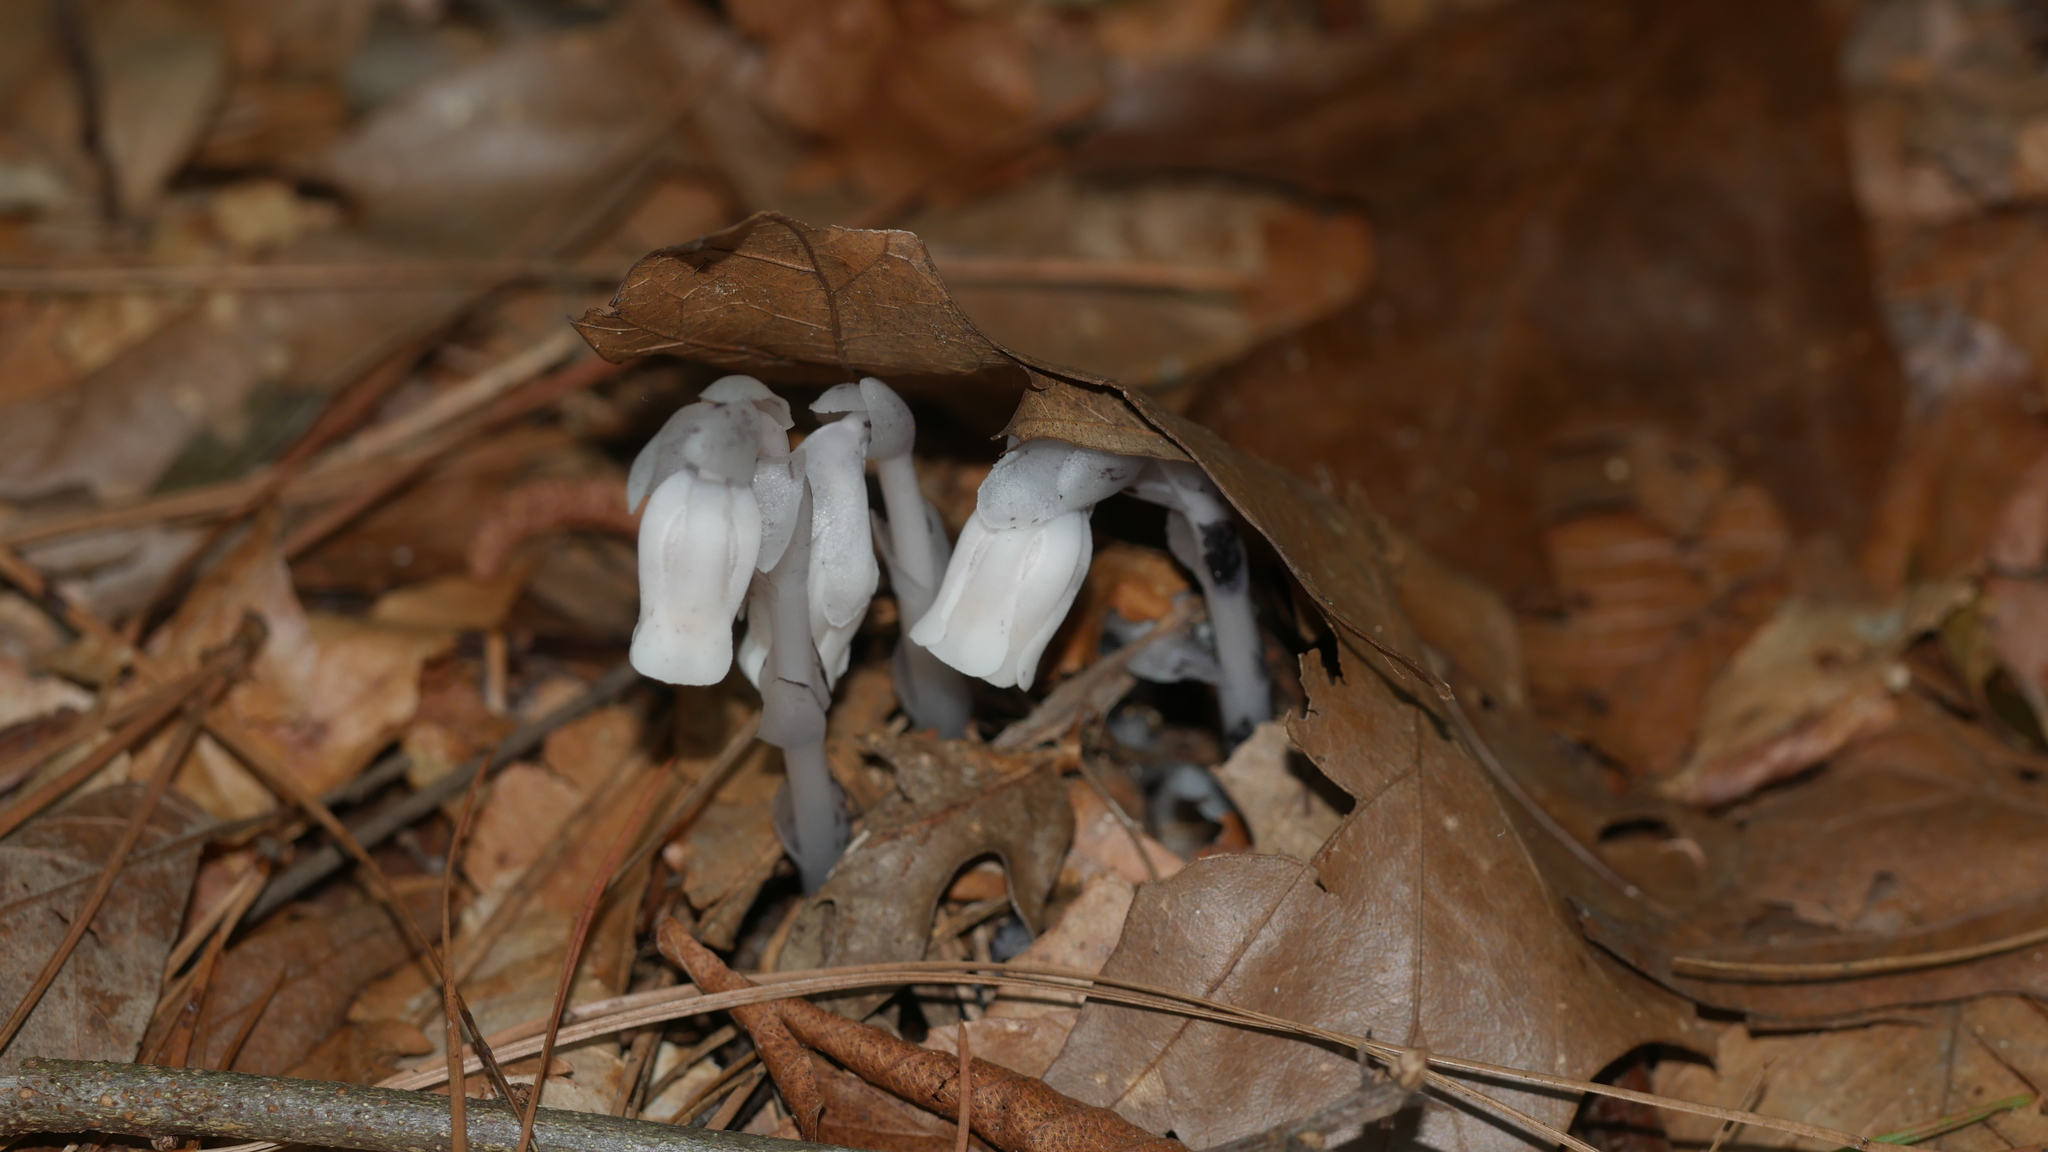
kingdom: Plantae
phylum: Tracheophyta
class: Magnoliopsida
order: Ericales
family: Ericaceae
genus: Monotropa
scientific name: Monotropa uniflora
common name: Convulsion root
